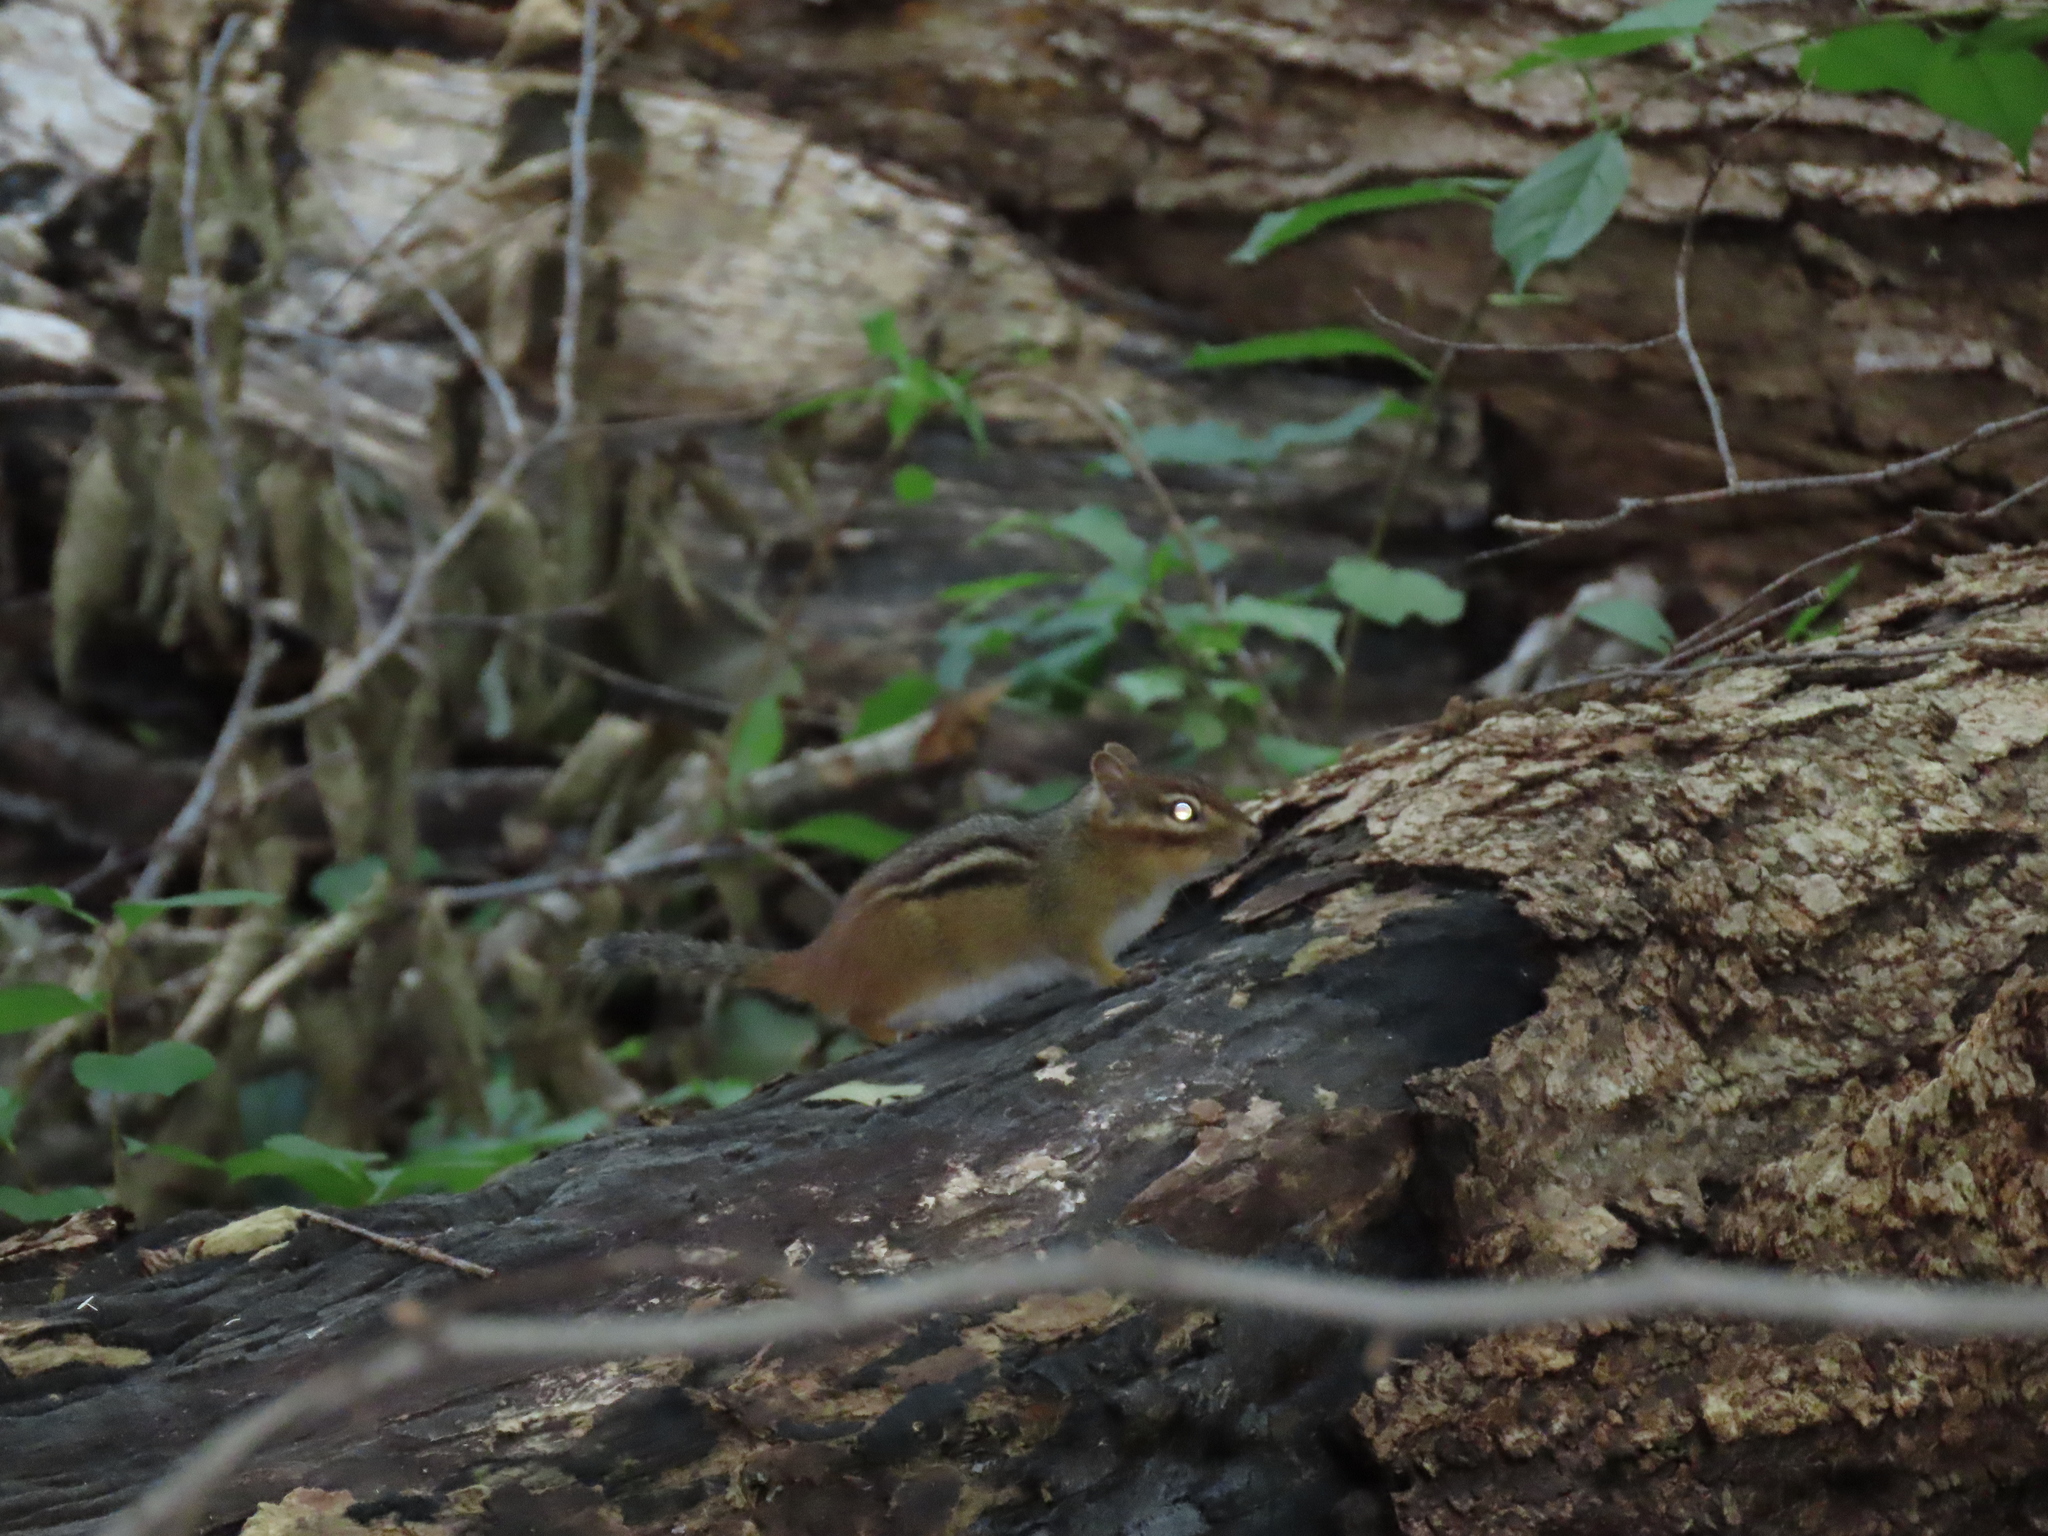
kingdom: Animalia
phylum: Chordata
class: Mammalia
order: Rodentia
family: Sciuridae
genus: Tamias
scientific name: Tamias striatus
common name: Eastern chipmunk
